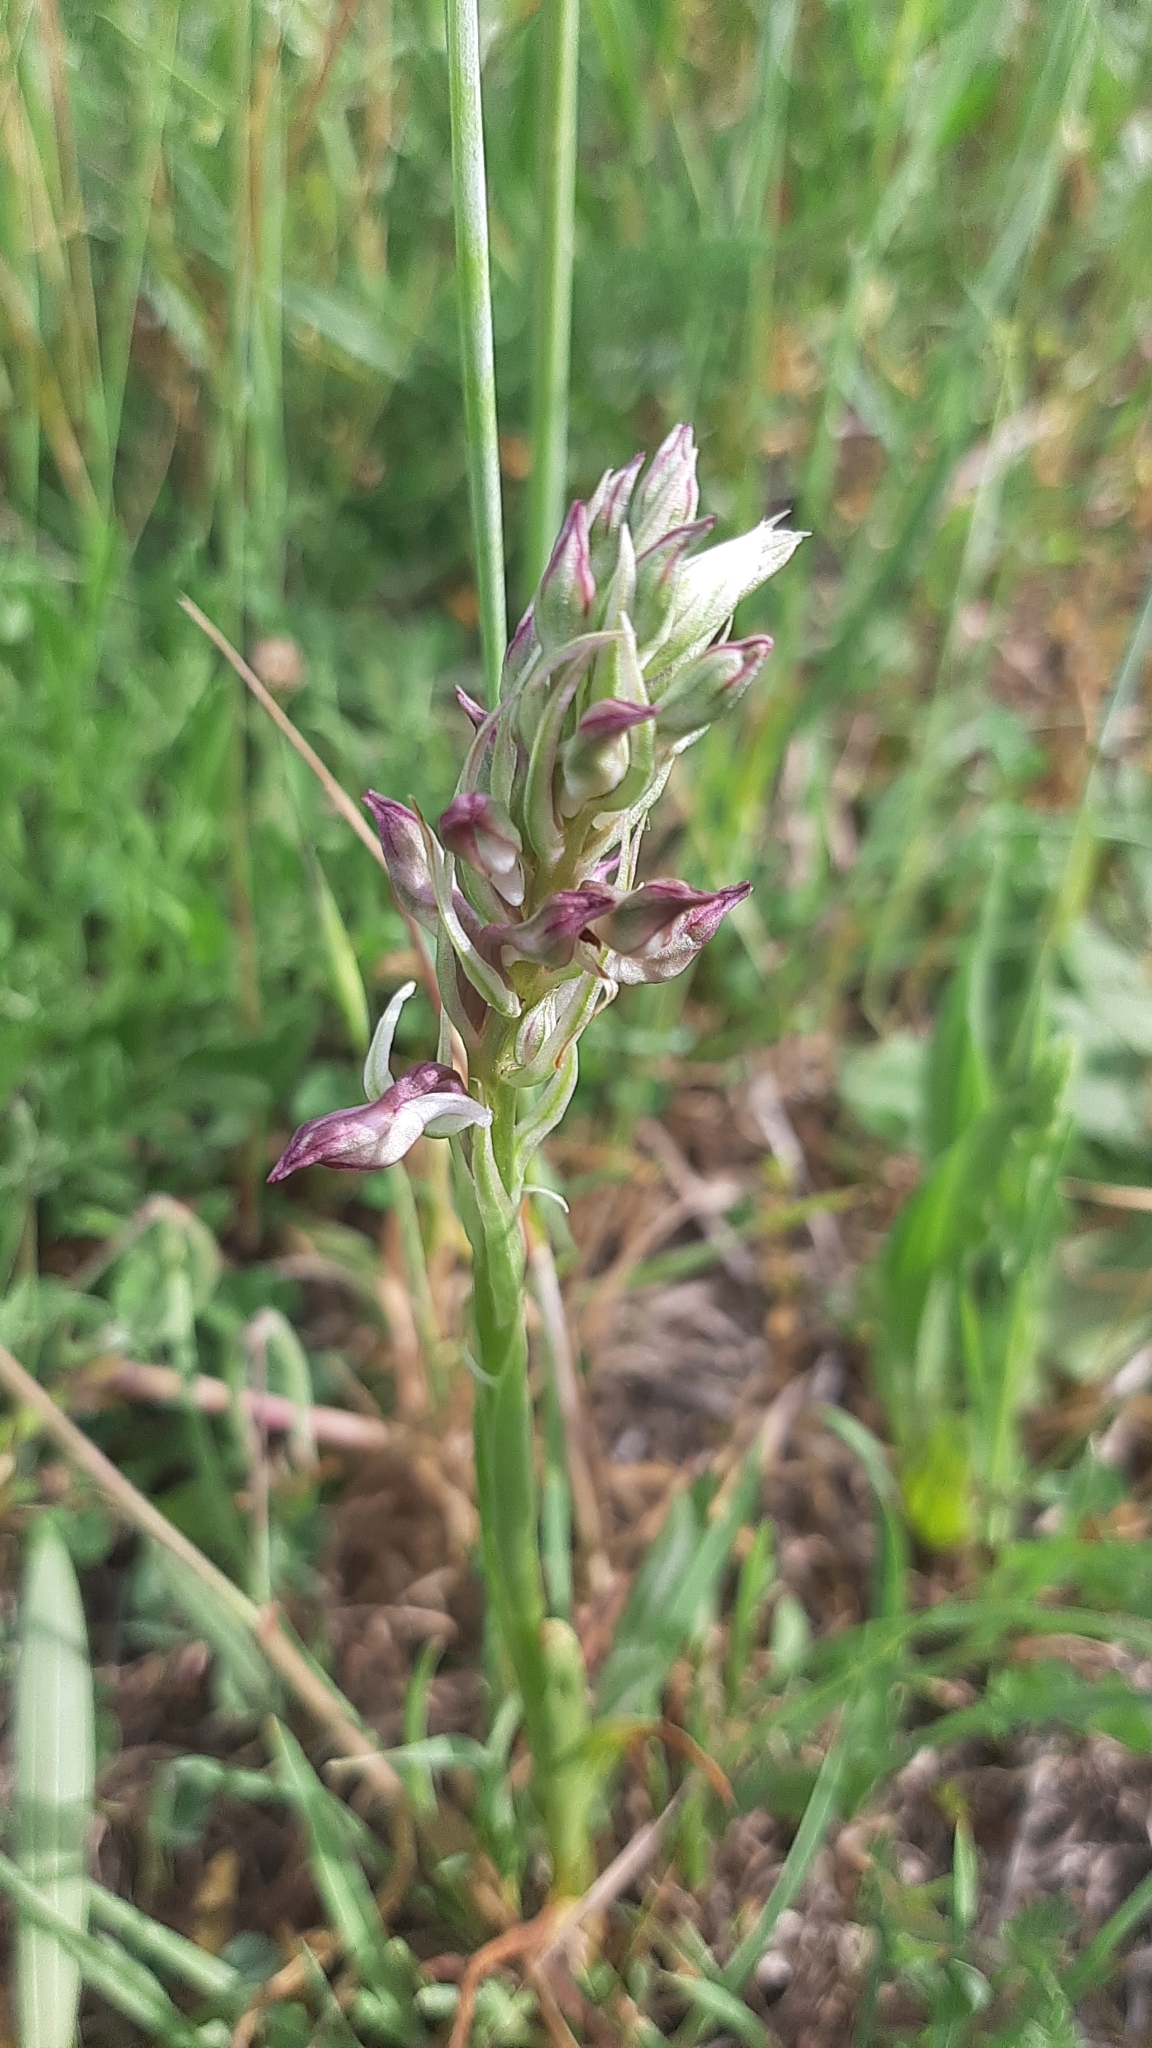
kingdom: Plantae
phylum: Tracheophyta
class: Liliopsida
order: Asparagales
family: Orchidaceae
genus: Anacamptis
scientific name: Anacamptis coriophora
